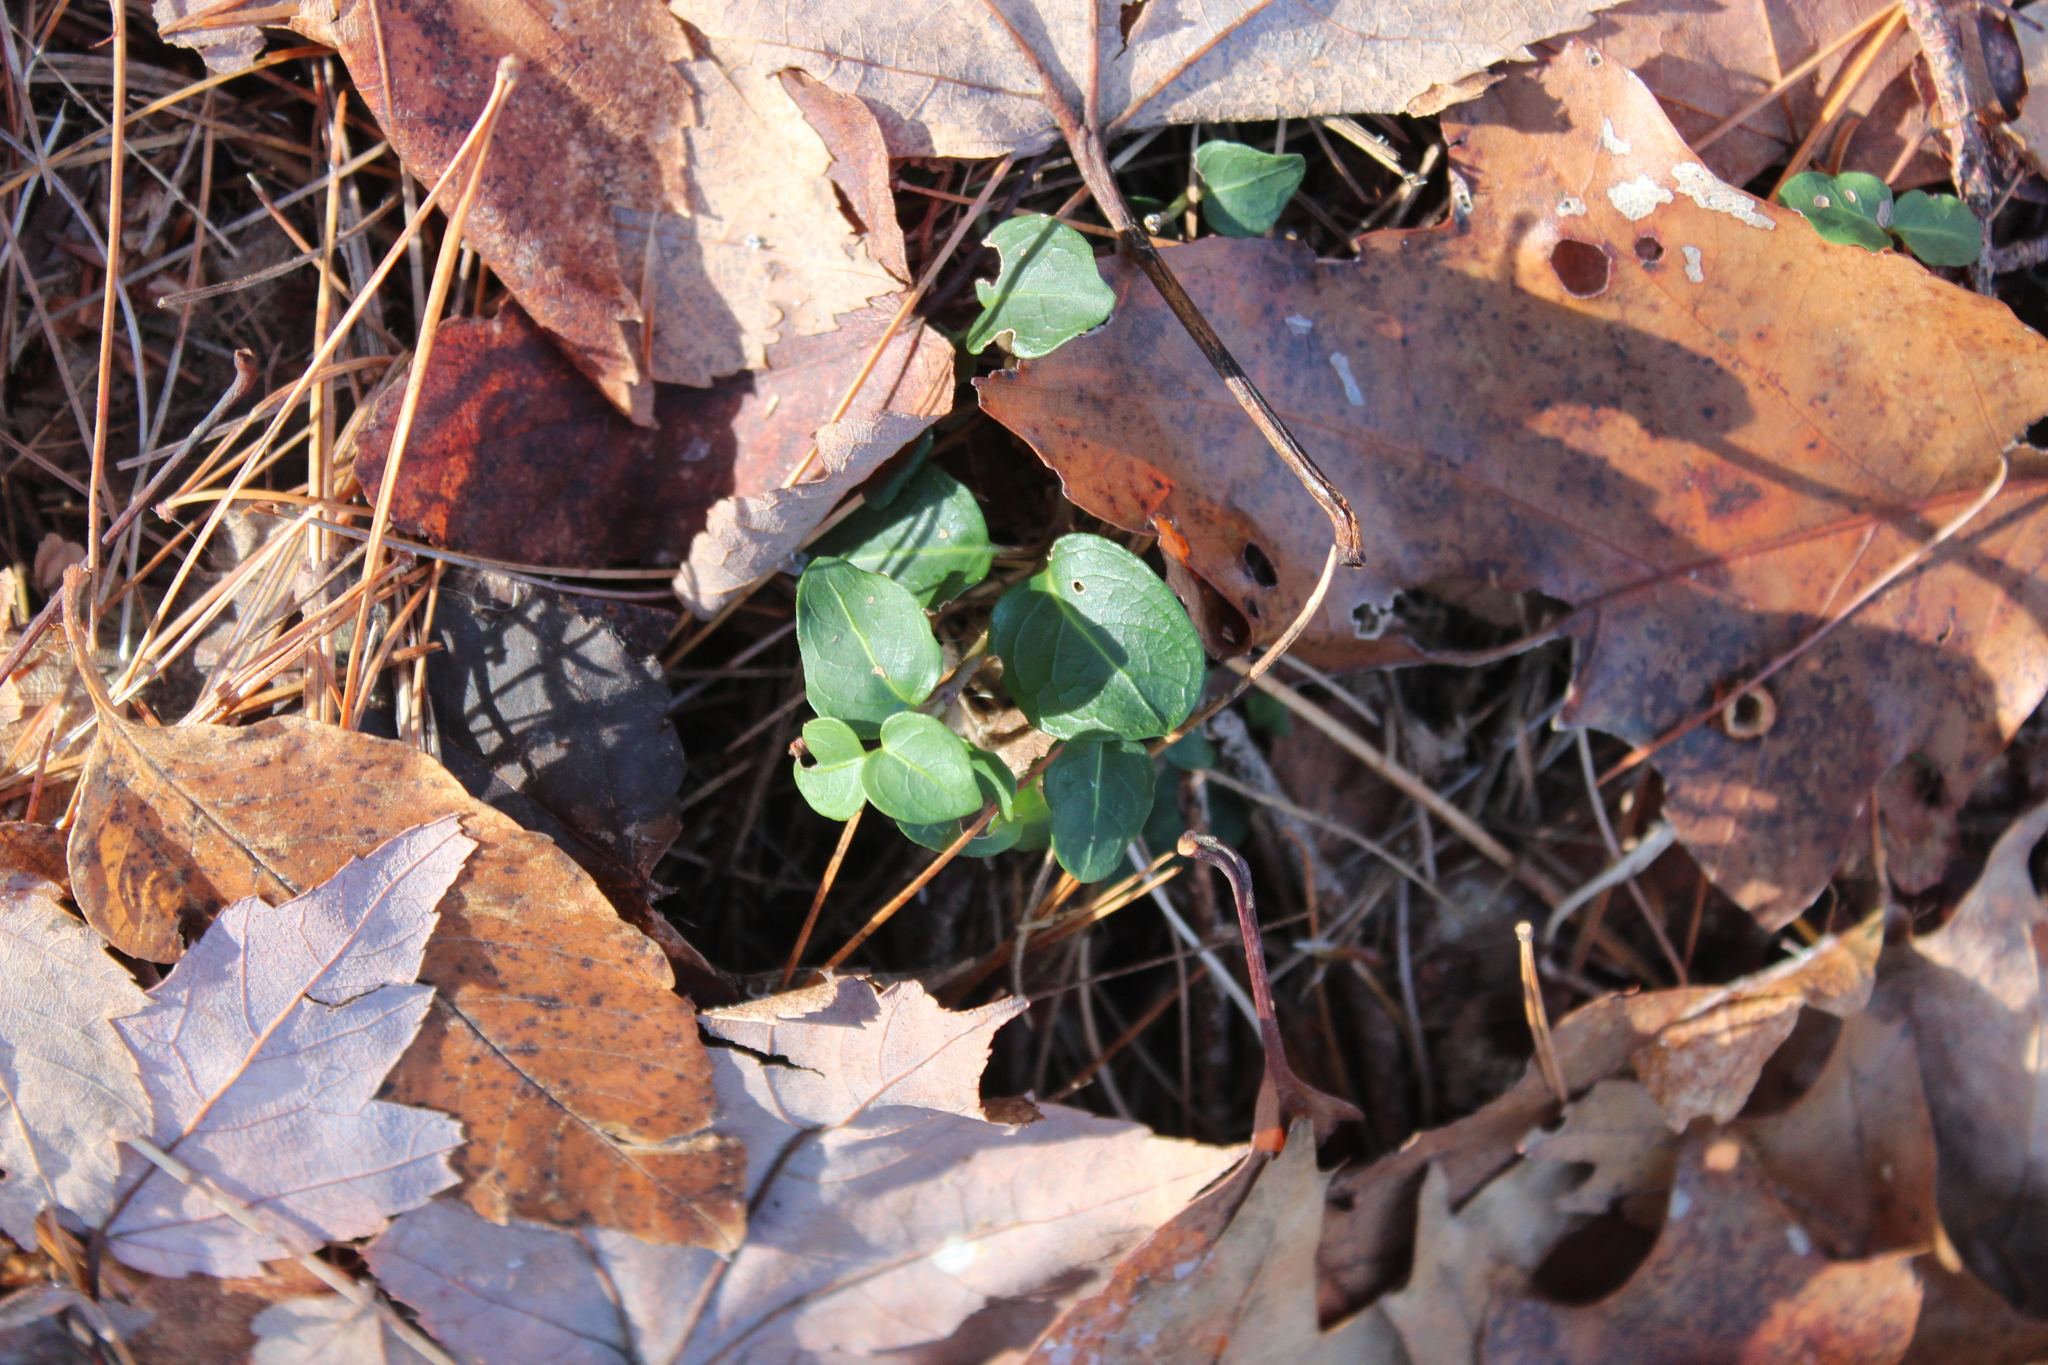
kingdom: Plantae
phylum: Tracheophyta
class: Magnoliopsida
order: Gentianales
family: Rubiaceae
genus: Mitchella
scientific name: Mitchella repens
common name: Partridge-berry
